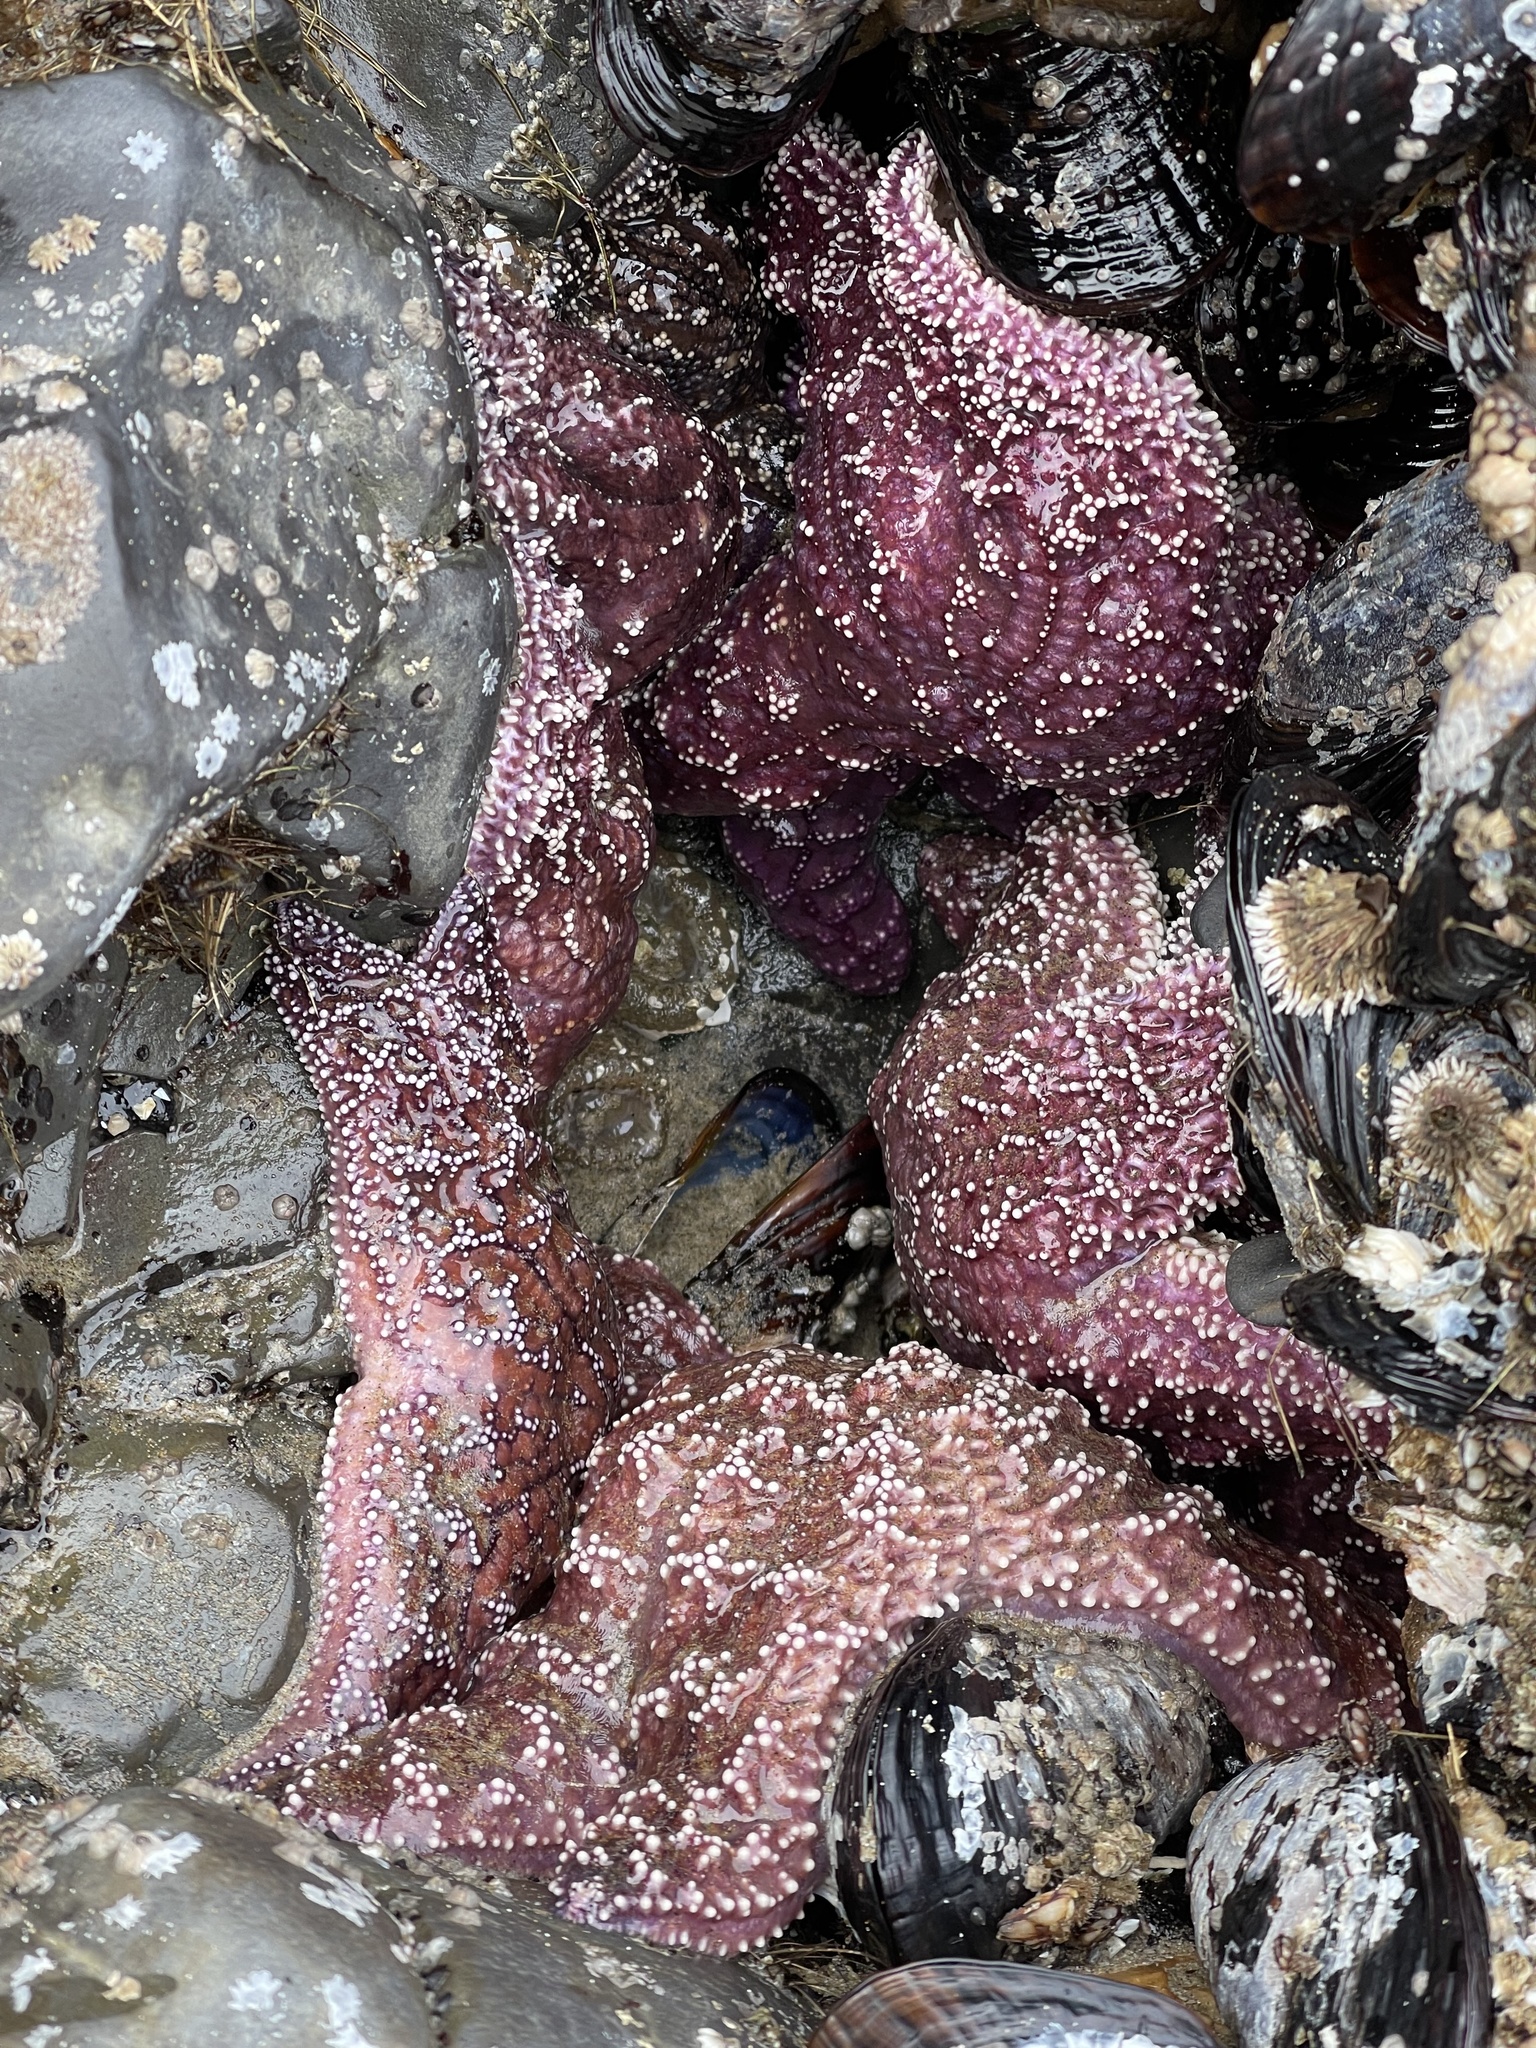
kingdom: Animalia
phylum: Echinodermata
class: Asteroidea
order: Forcipulatida
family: Asteriidae
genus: Pisaster
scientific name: Pisaster ochraceus
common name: Ochre stars
